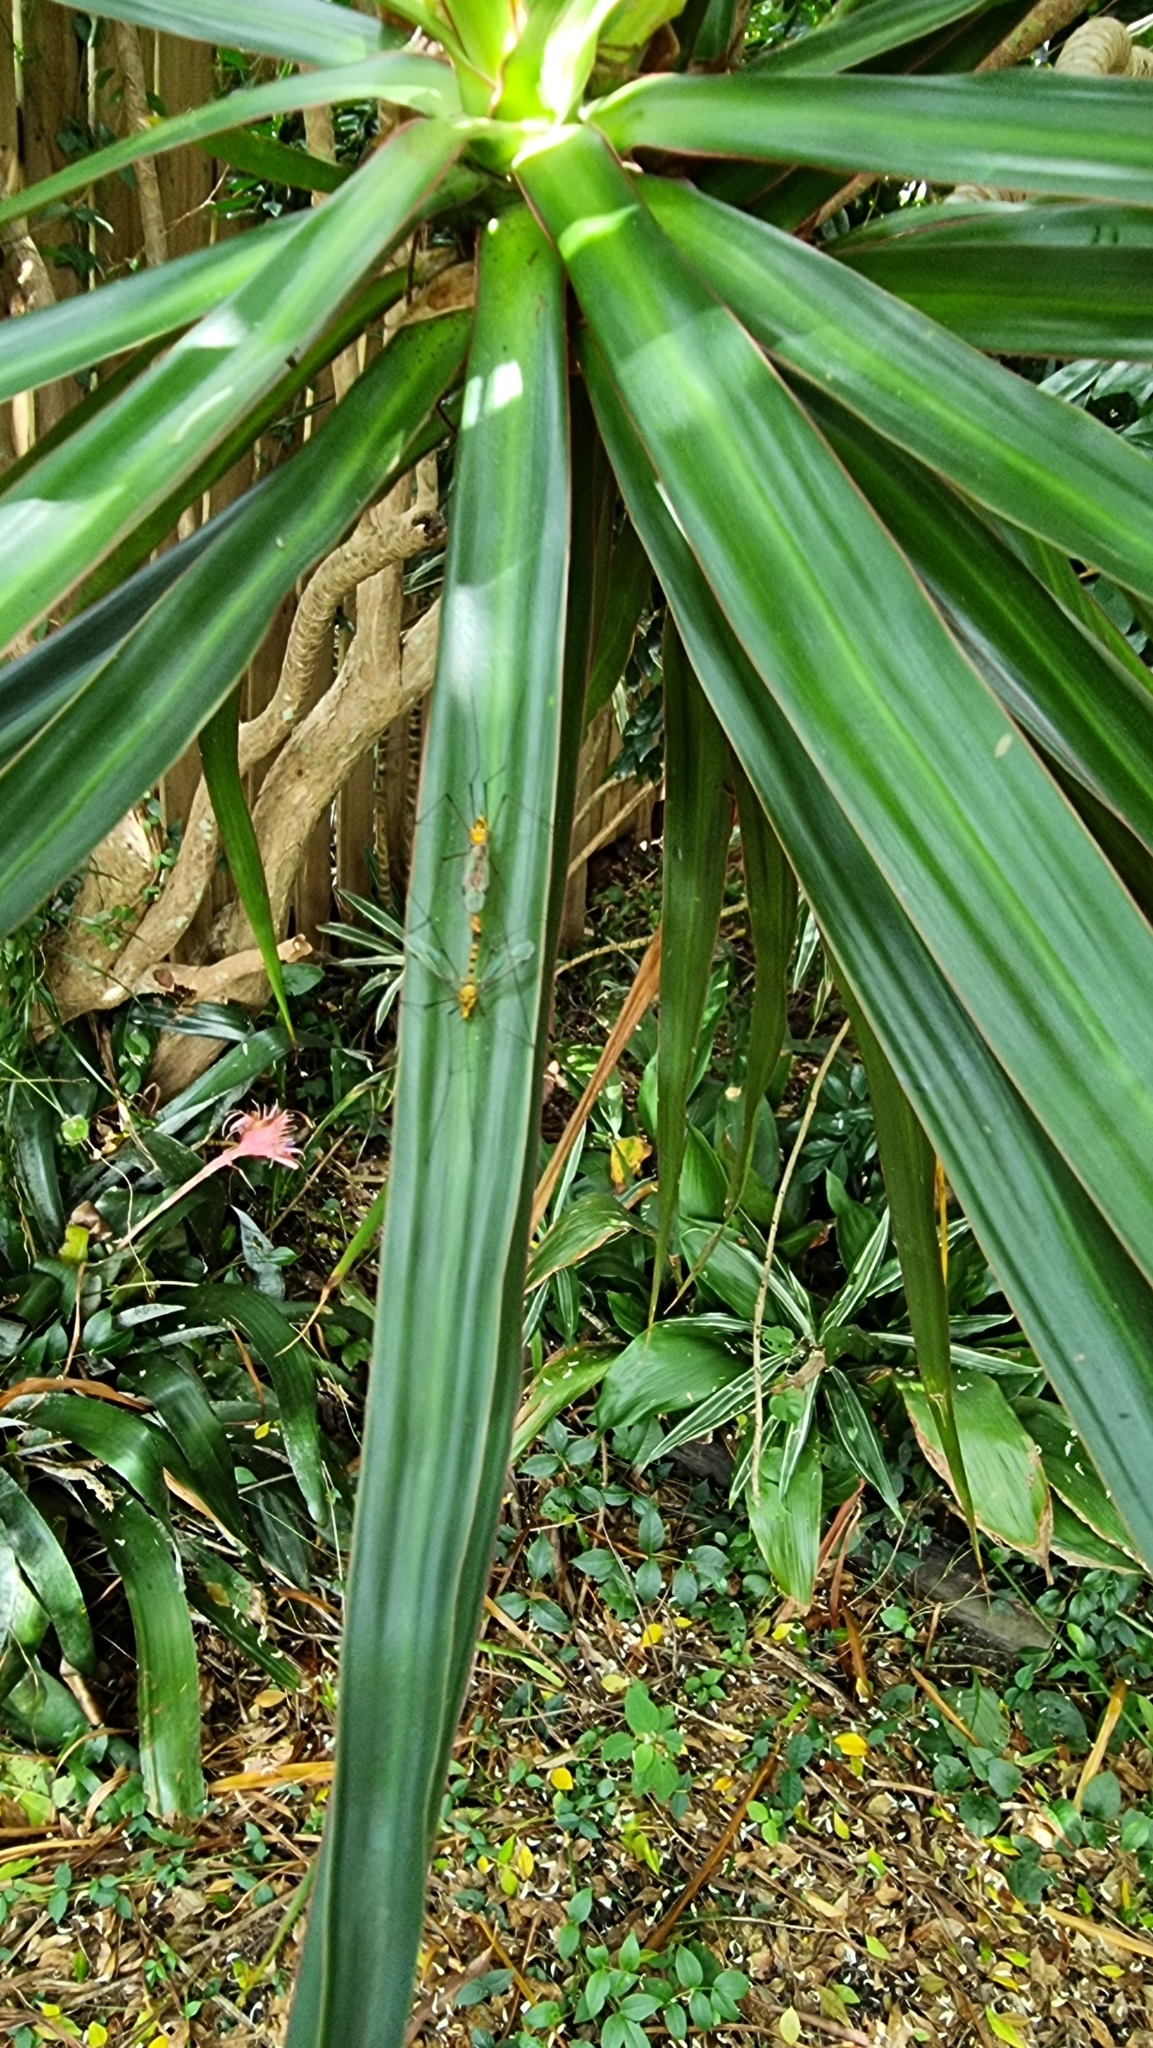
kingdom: Animalia
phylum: Arthropoda
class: Insecta
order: Diptera
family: Tipulidae
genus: Nephrotoma
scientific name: Nephrotoma australasiae
